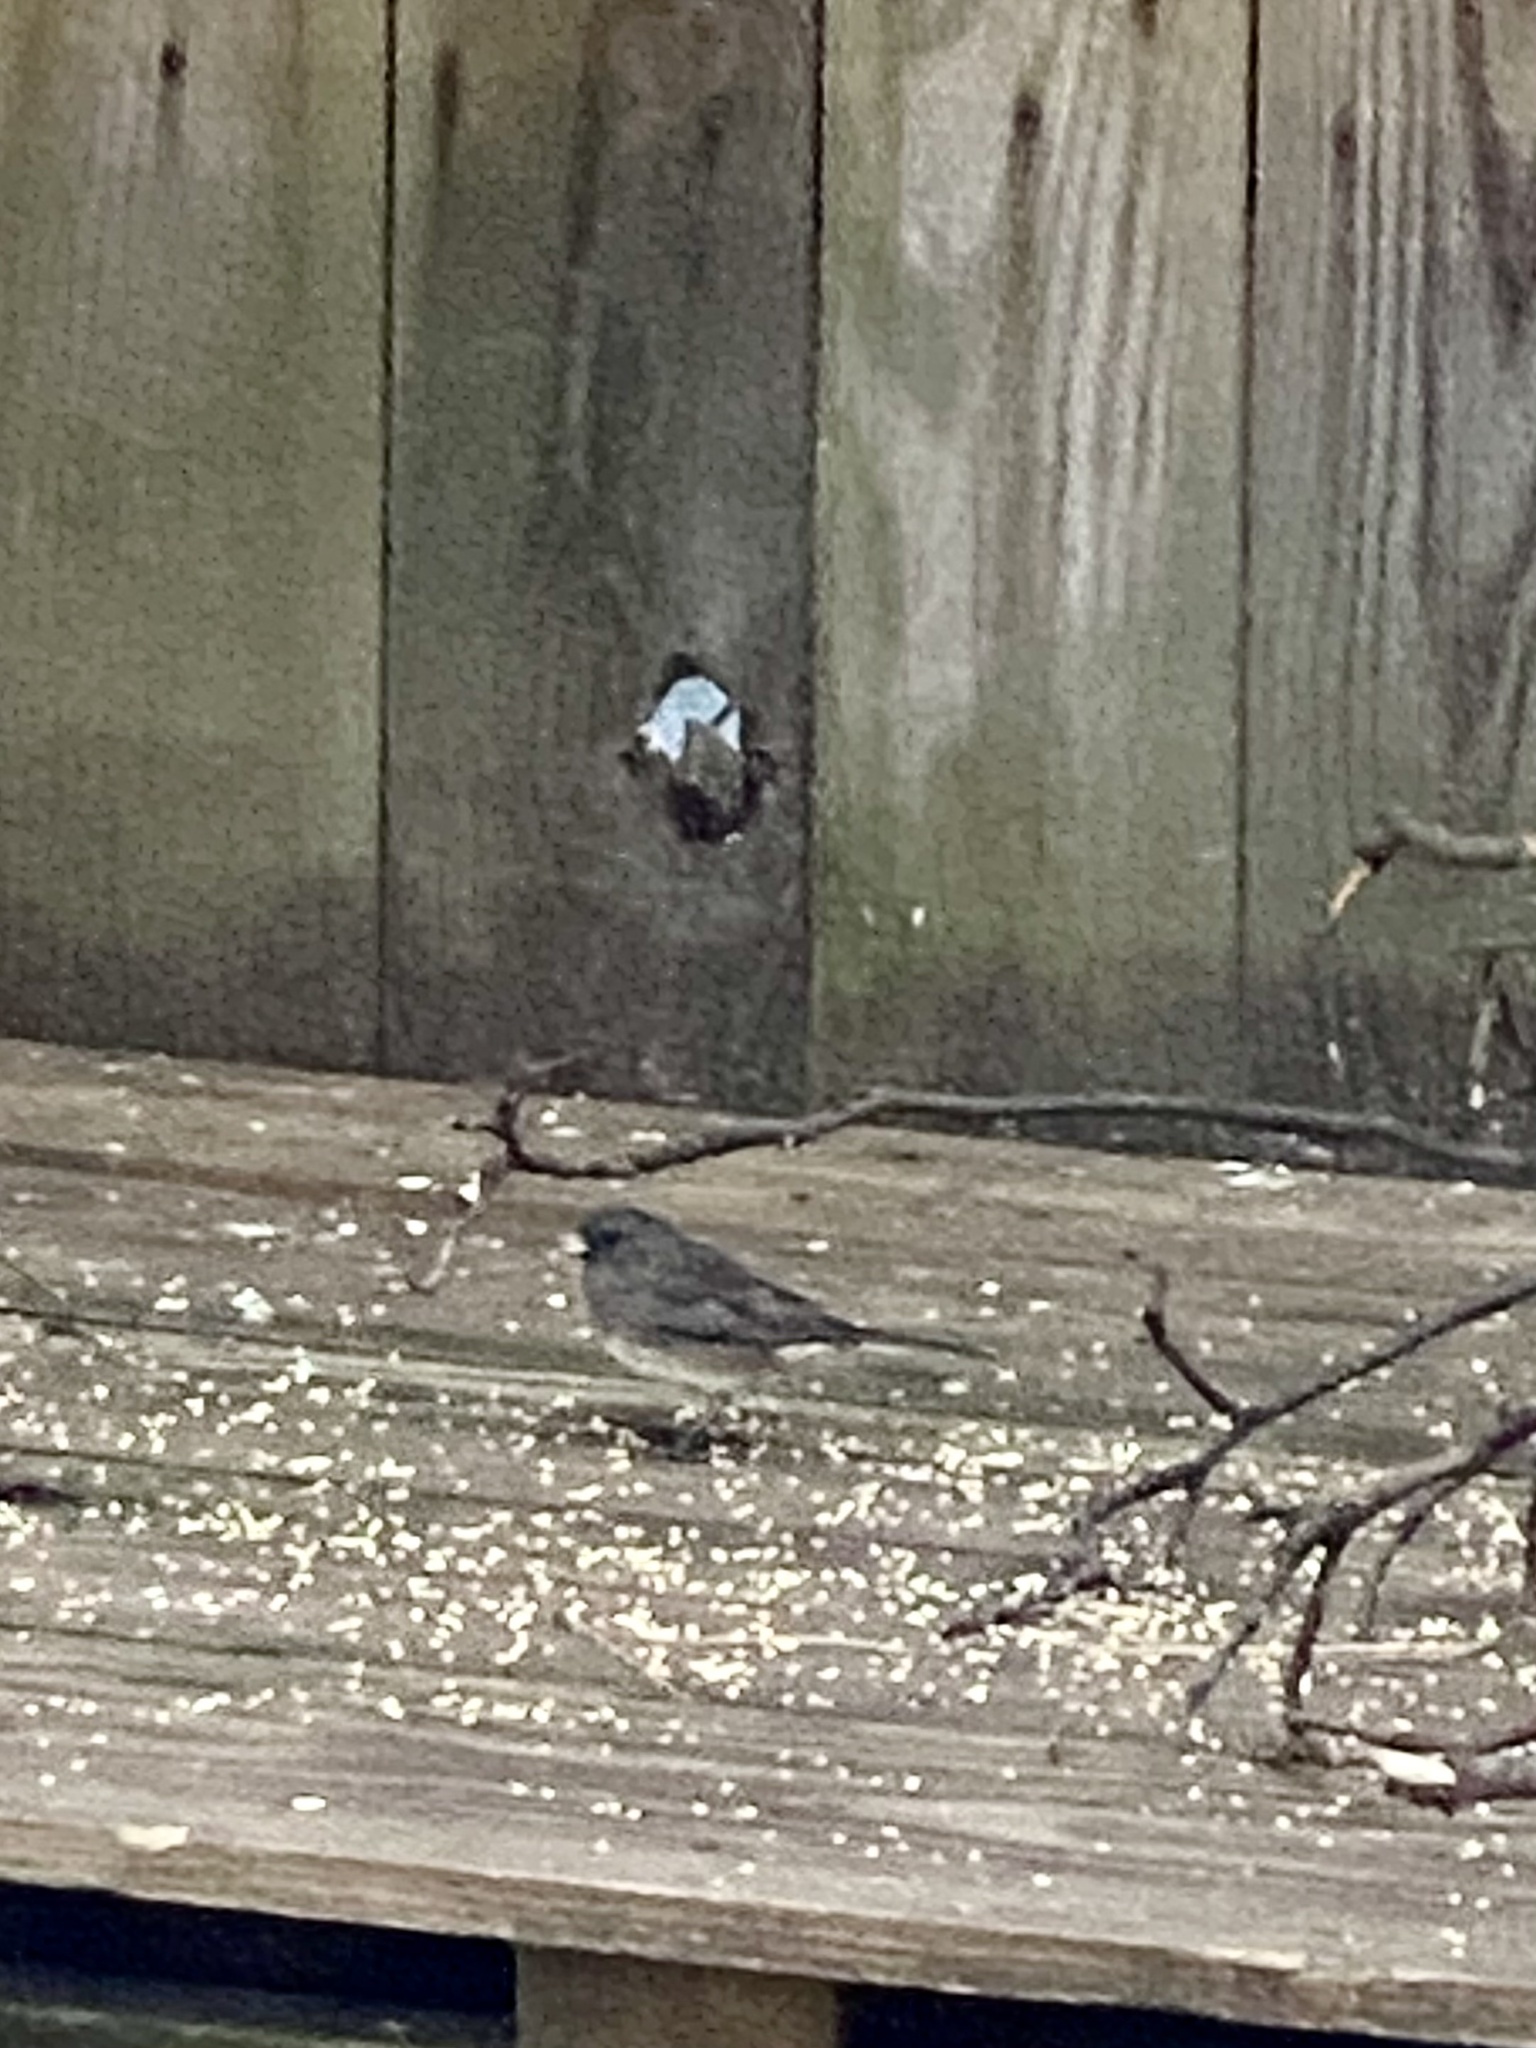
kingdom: Animalia
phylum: Chordata
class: Aves
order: Passeriformes
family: Passerellidae
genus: Junco
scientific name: Junco hyemalis
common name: Dark-eyed junco
